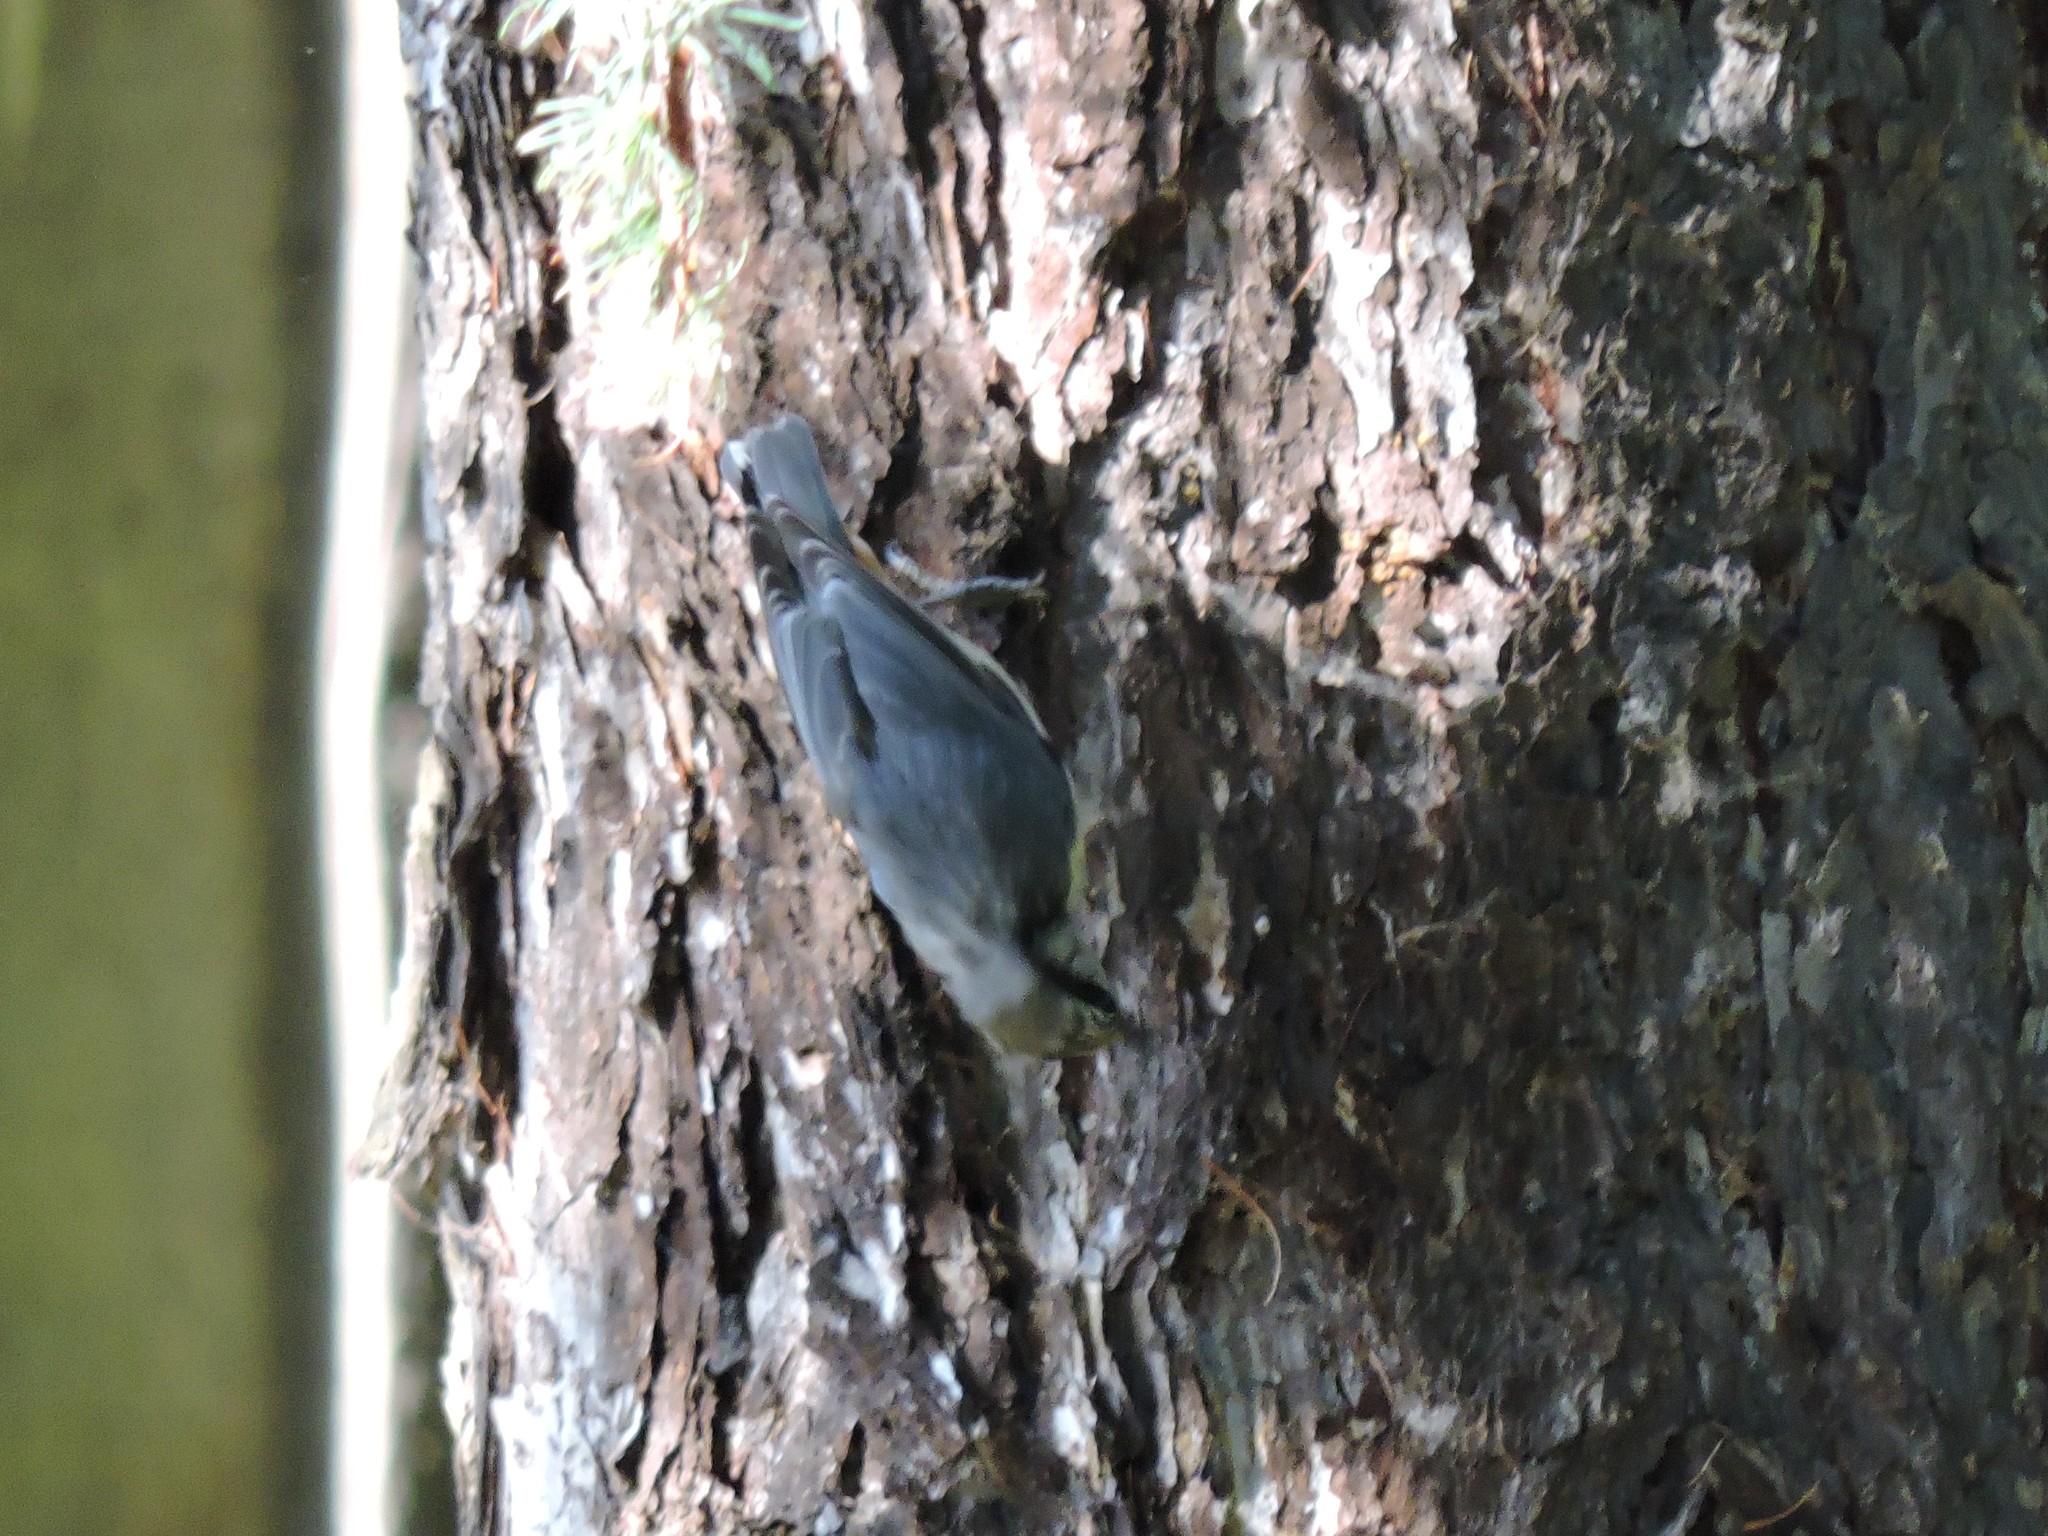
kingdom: Animalia
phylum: Chordata
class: Aves
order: Passeriformes
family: Sittidae
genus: Sitta
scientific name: Sitta europaea
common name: Eurasian nuthatch
